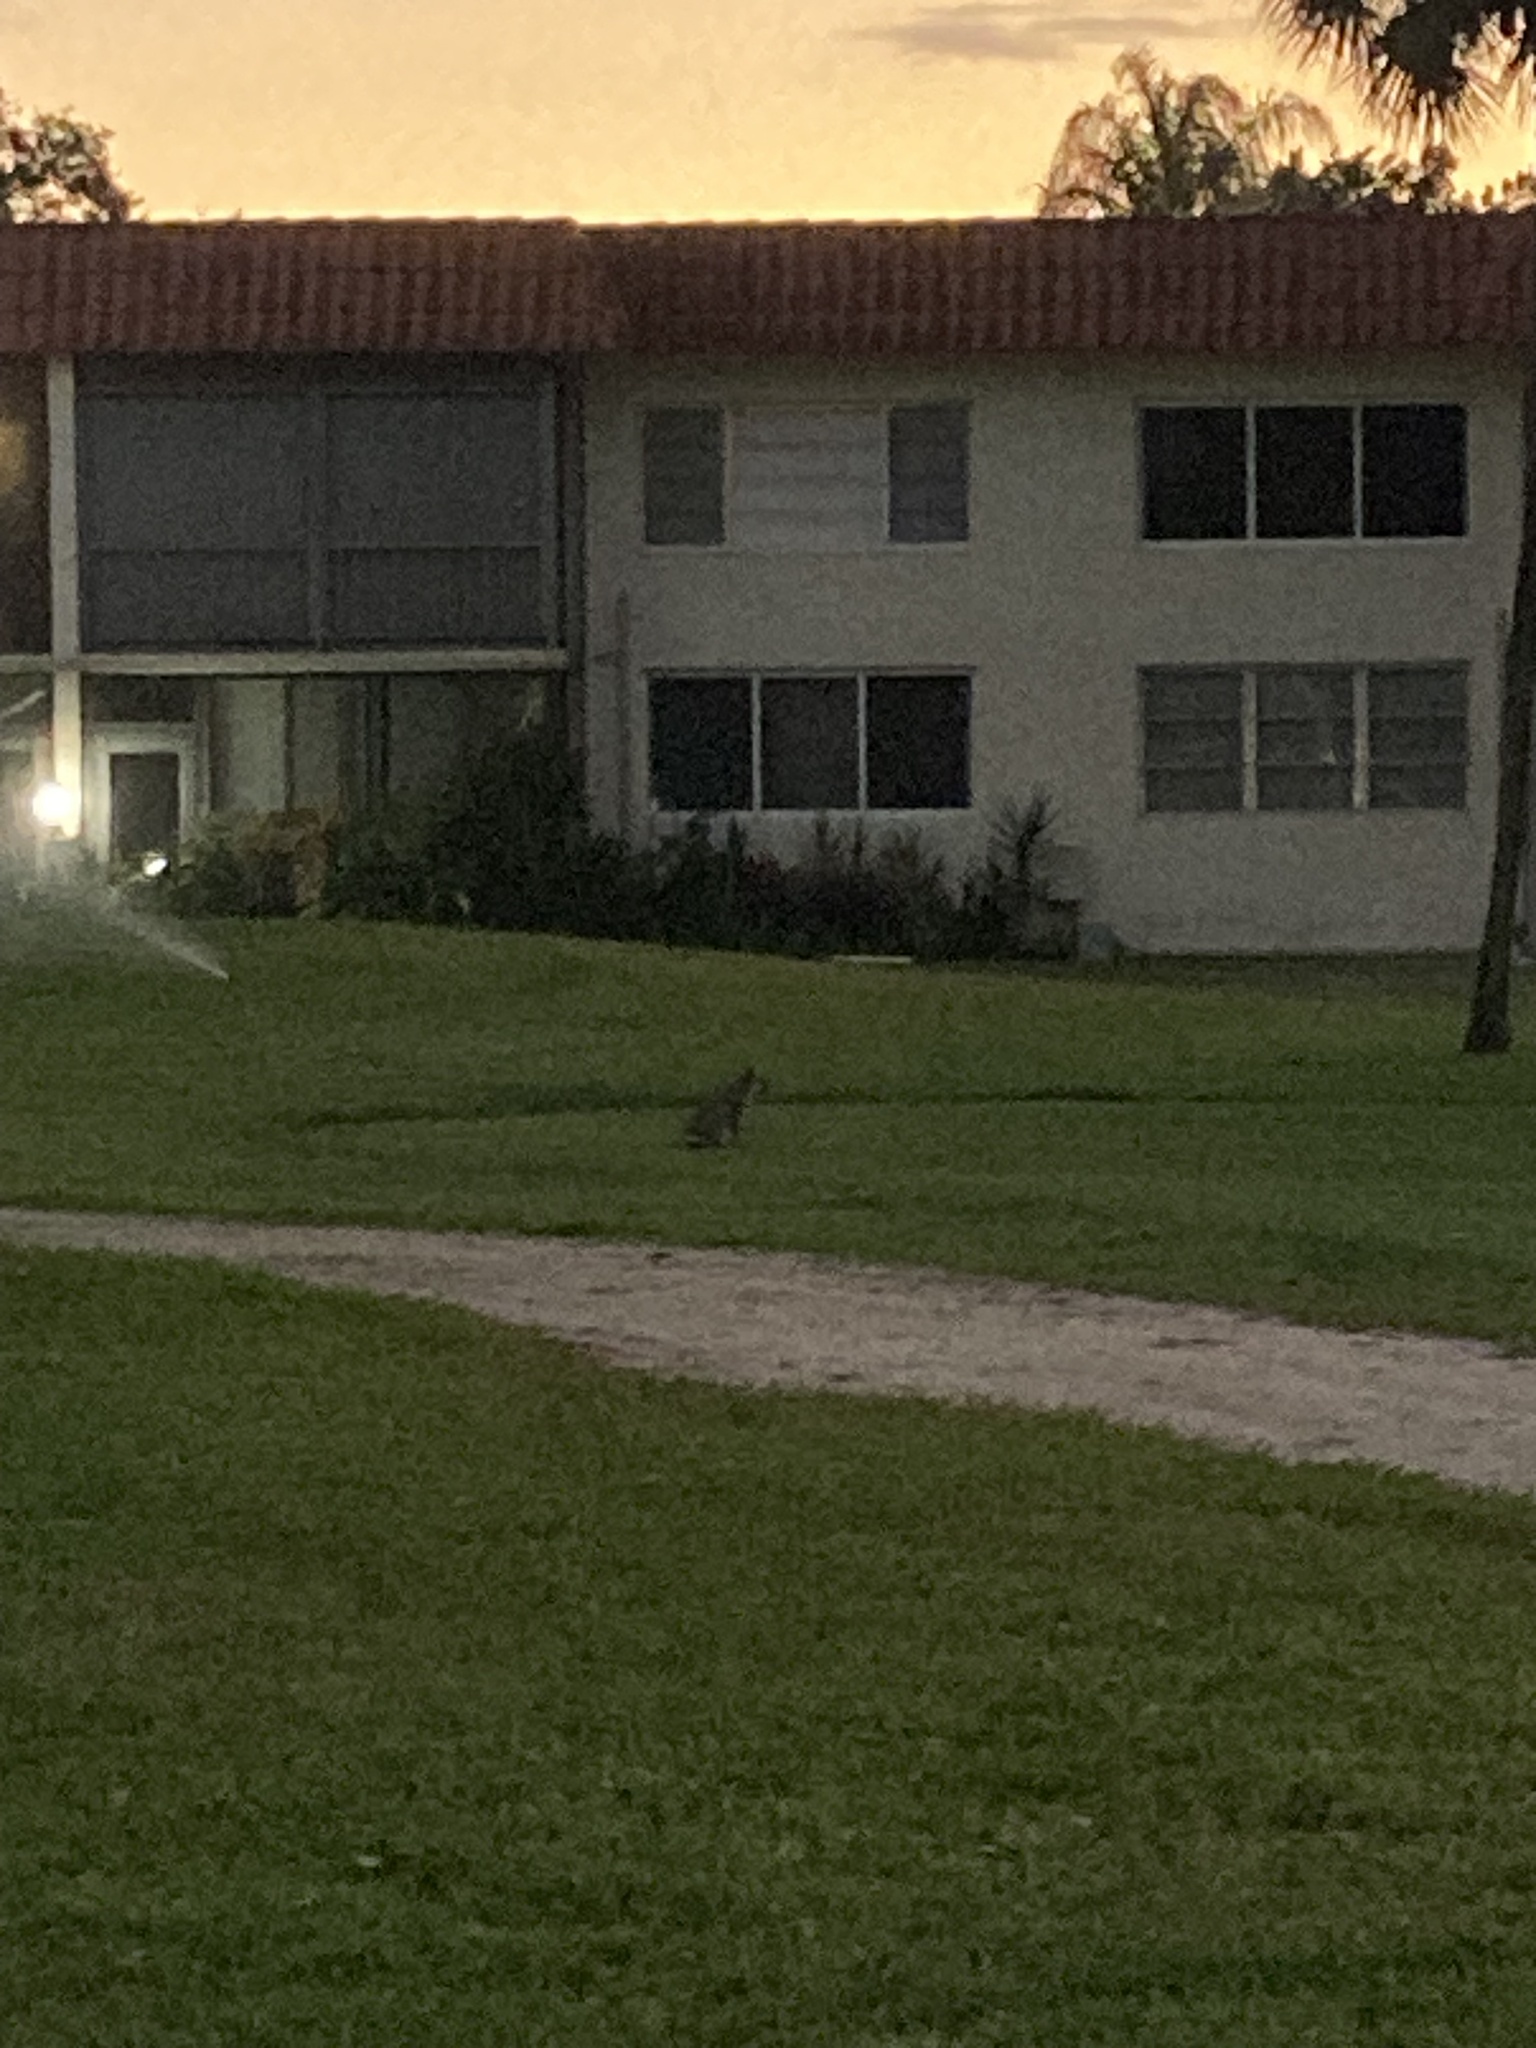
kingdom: Animalia
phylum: Chordata
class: Mammalia
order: Carnivora
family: Canidae
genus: Urocyon
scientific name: Urocyon cinereoargenteus
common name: Gray fox
